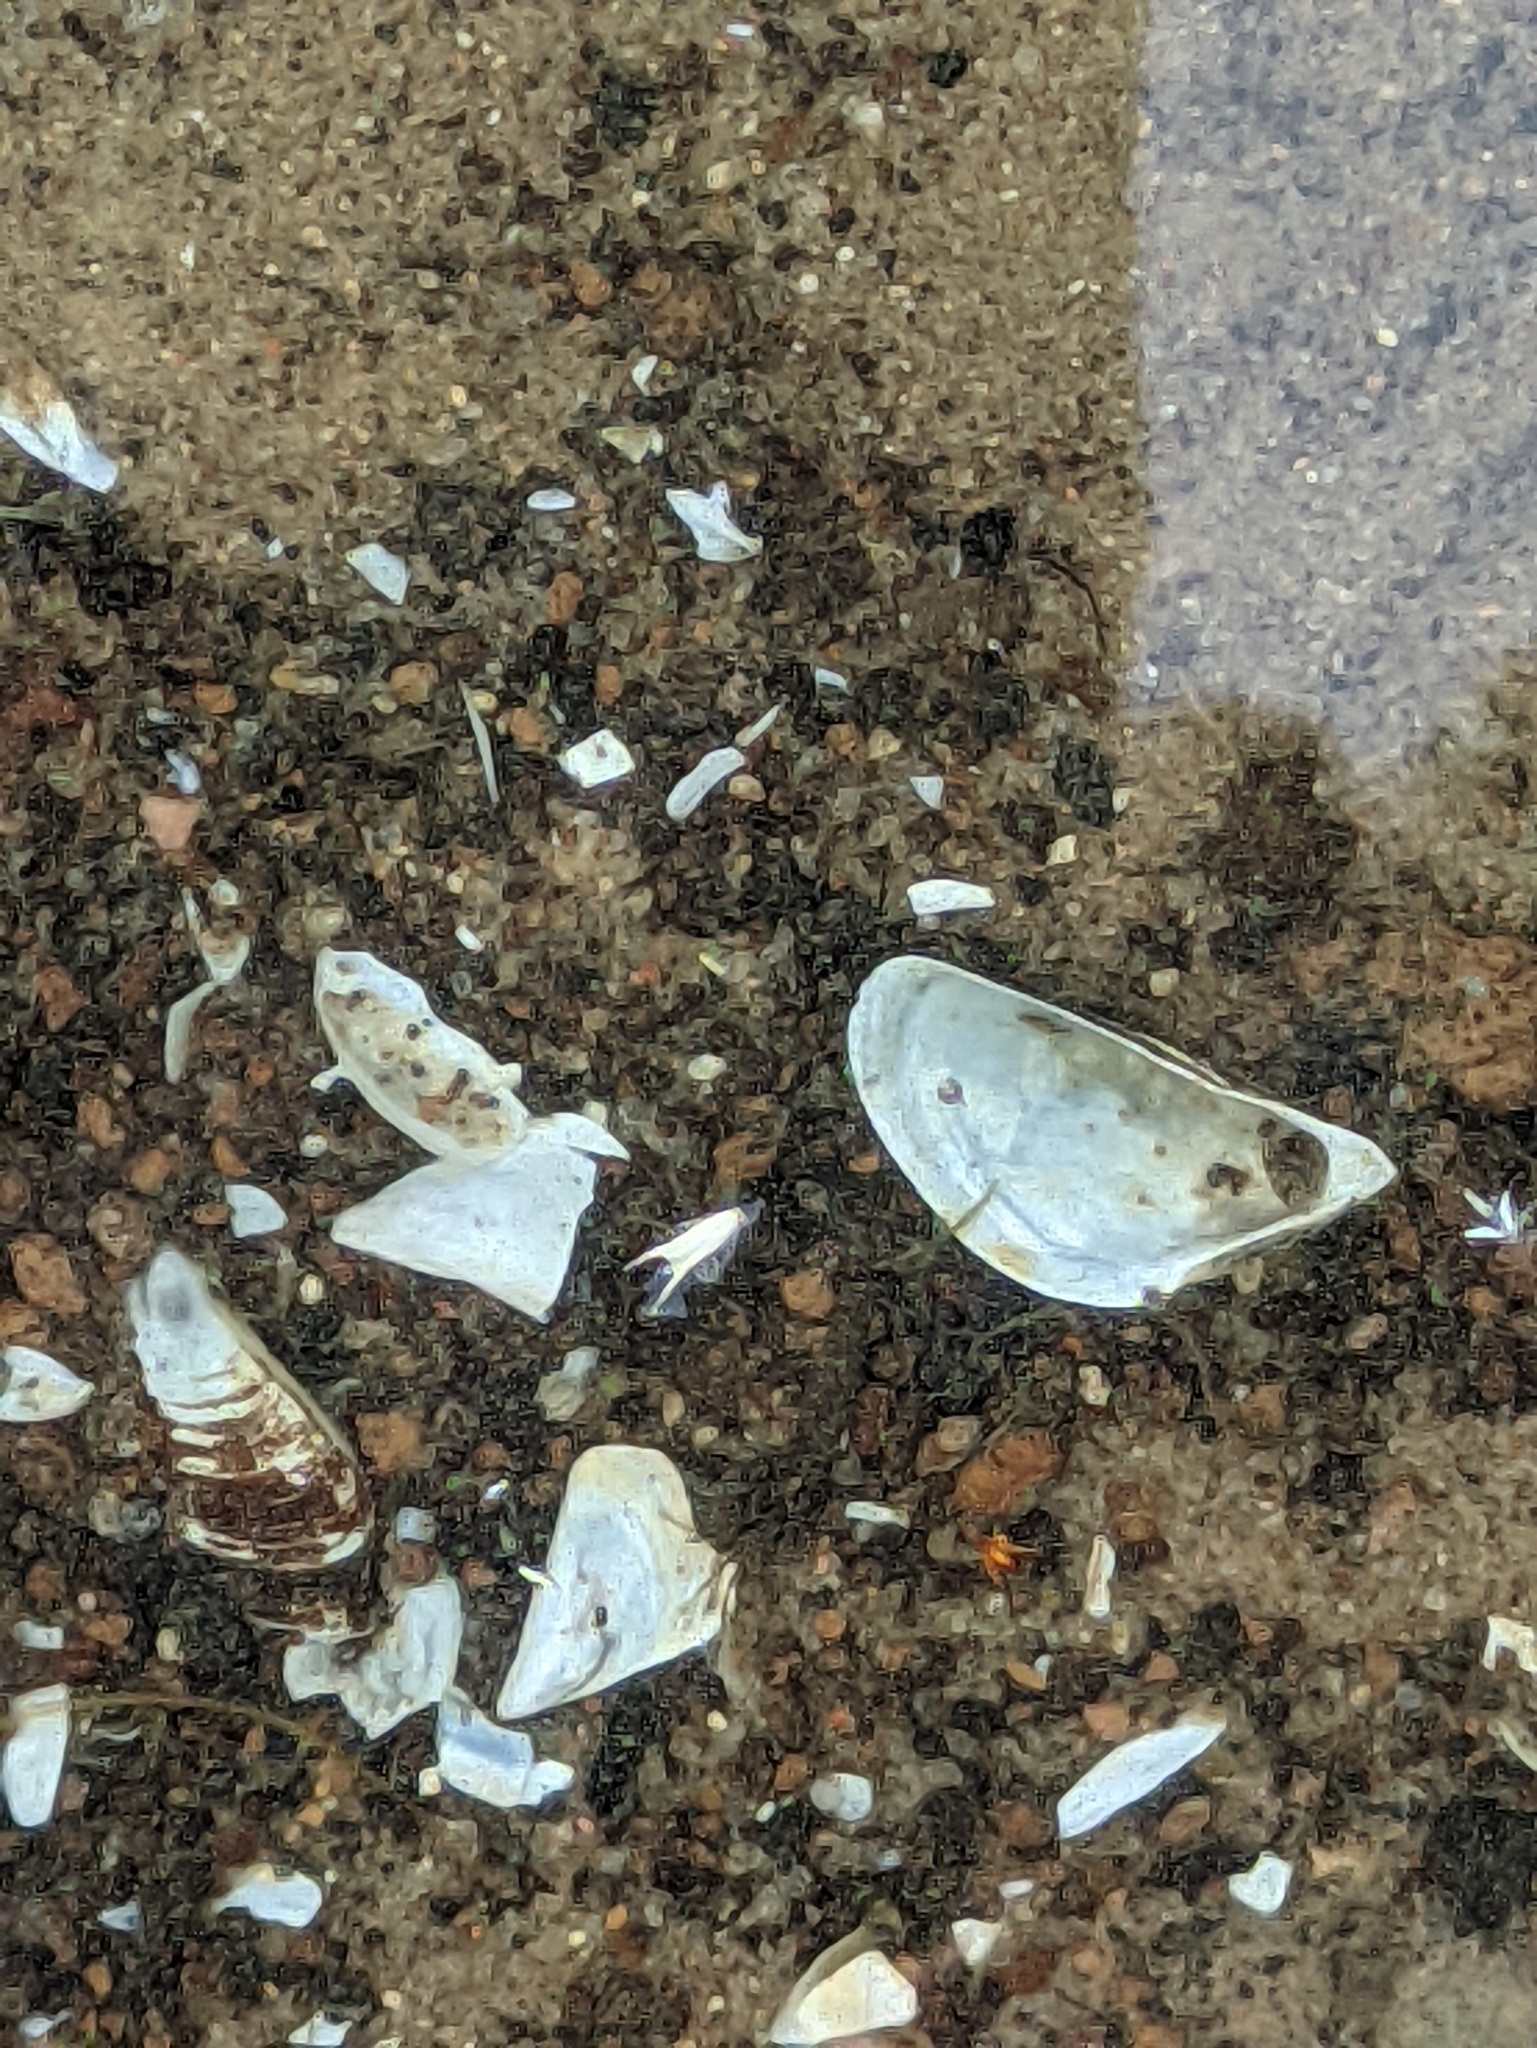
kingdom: Animalia
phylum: Mollusca
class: Bivalvia
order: Myida
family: Dreissenidae
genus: Dreissena
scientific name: Dreissena polymorpha
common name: Zebra mussel
